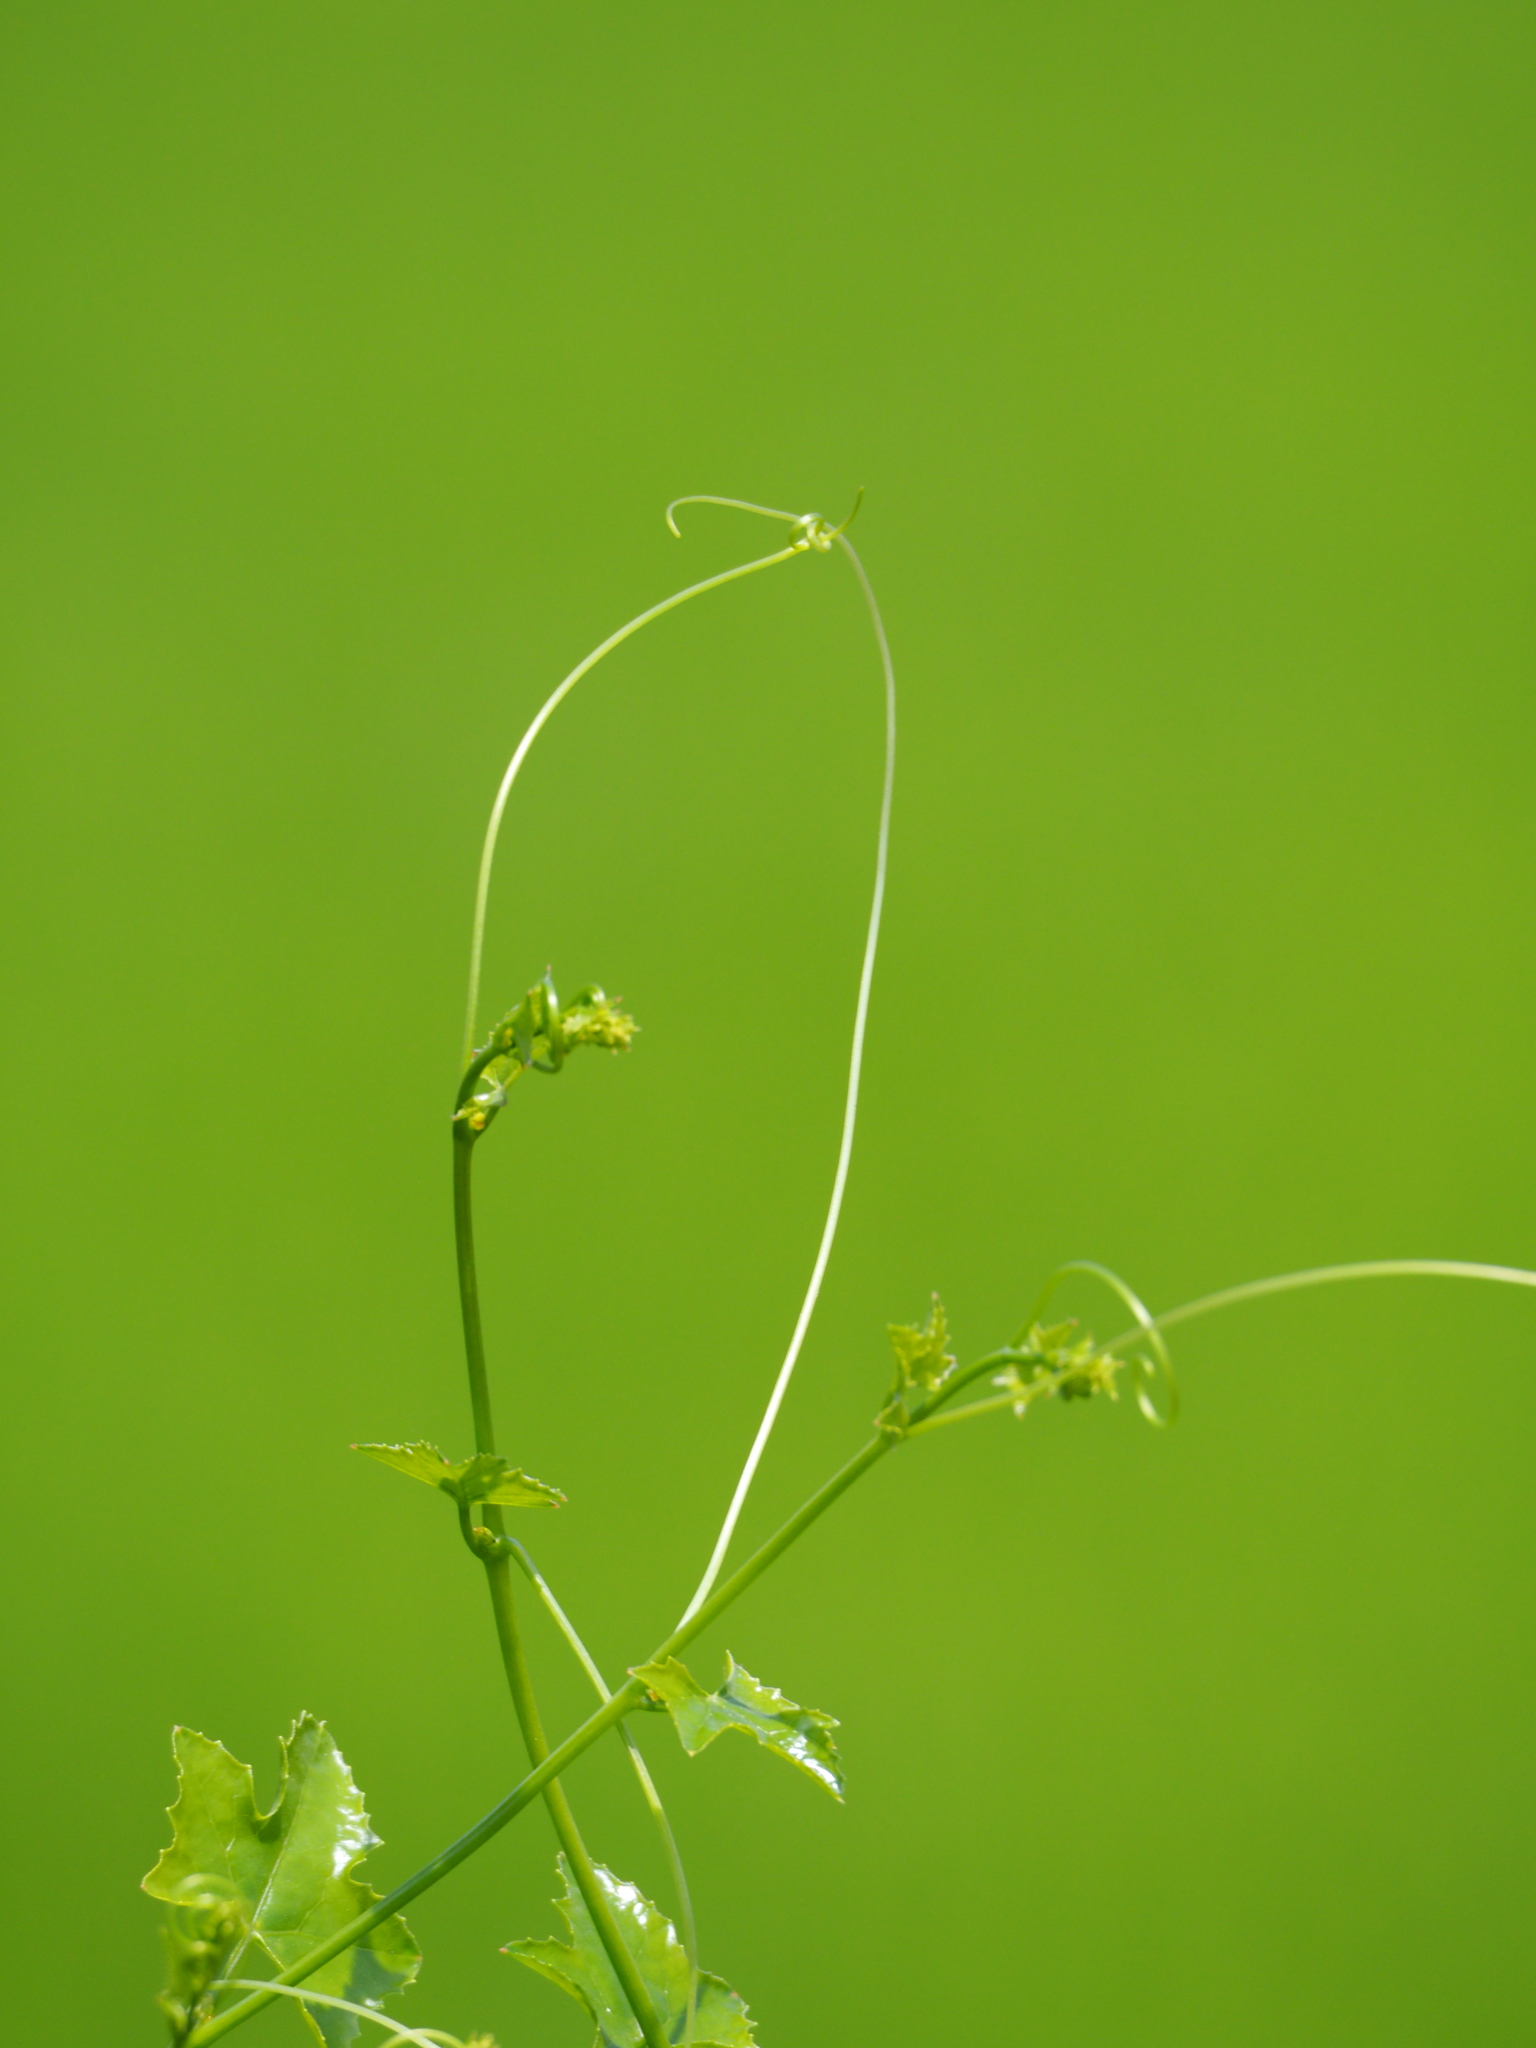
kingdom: Plantae
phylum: Tracheophyta
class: Magnoliopsida
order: Cucurbitales
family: Cucurbitaceae
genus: Coccinia
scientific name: Coccinia grandis
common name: Ivy gourd
